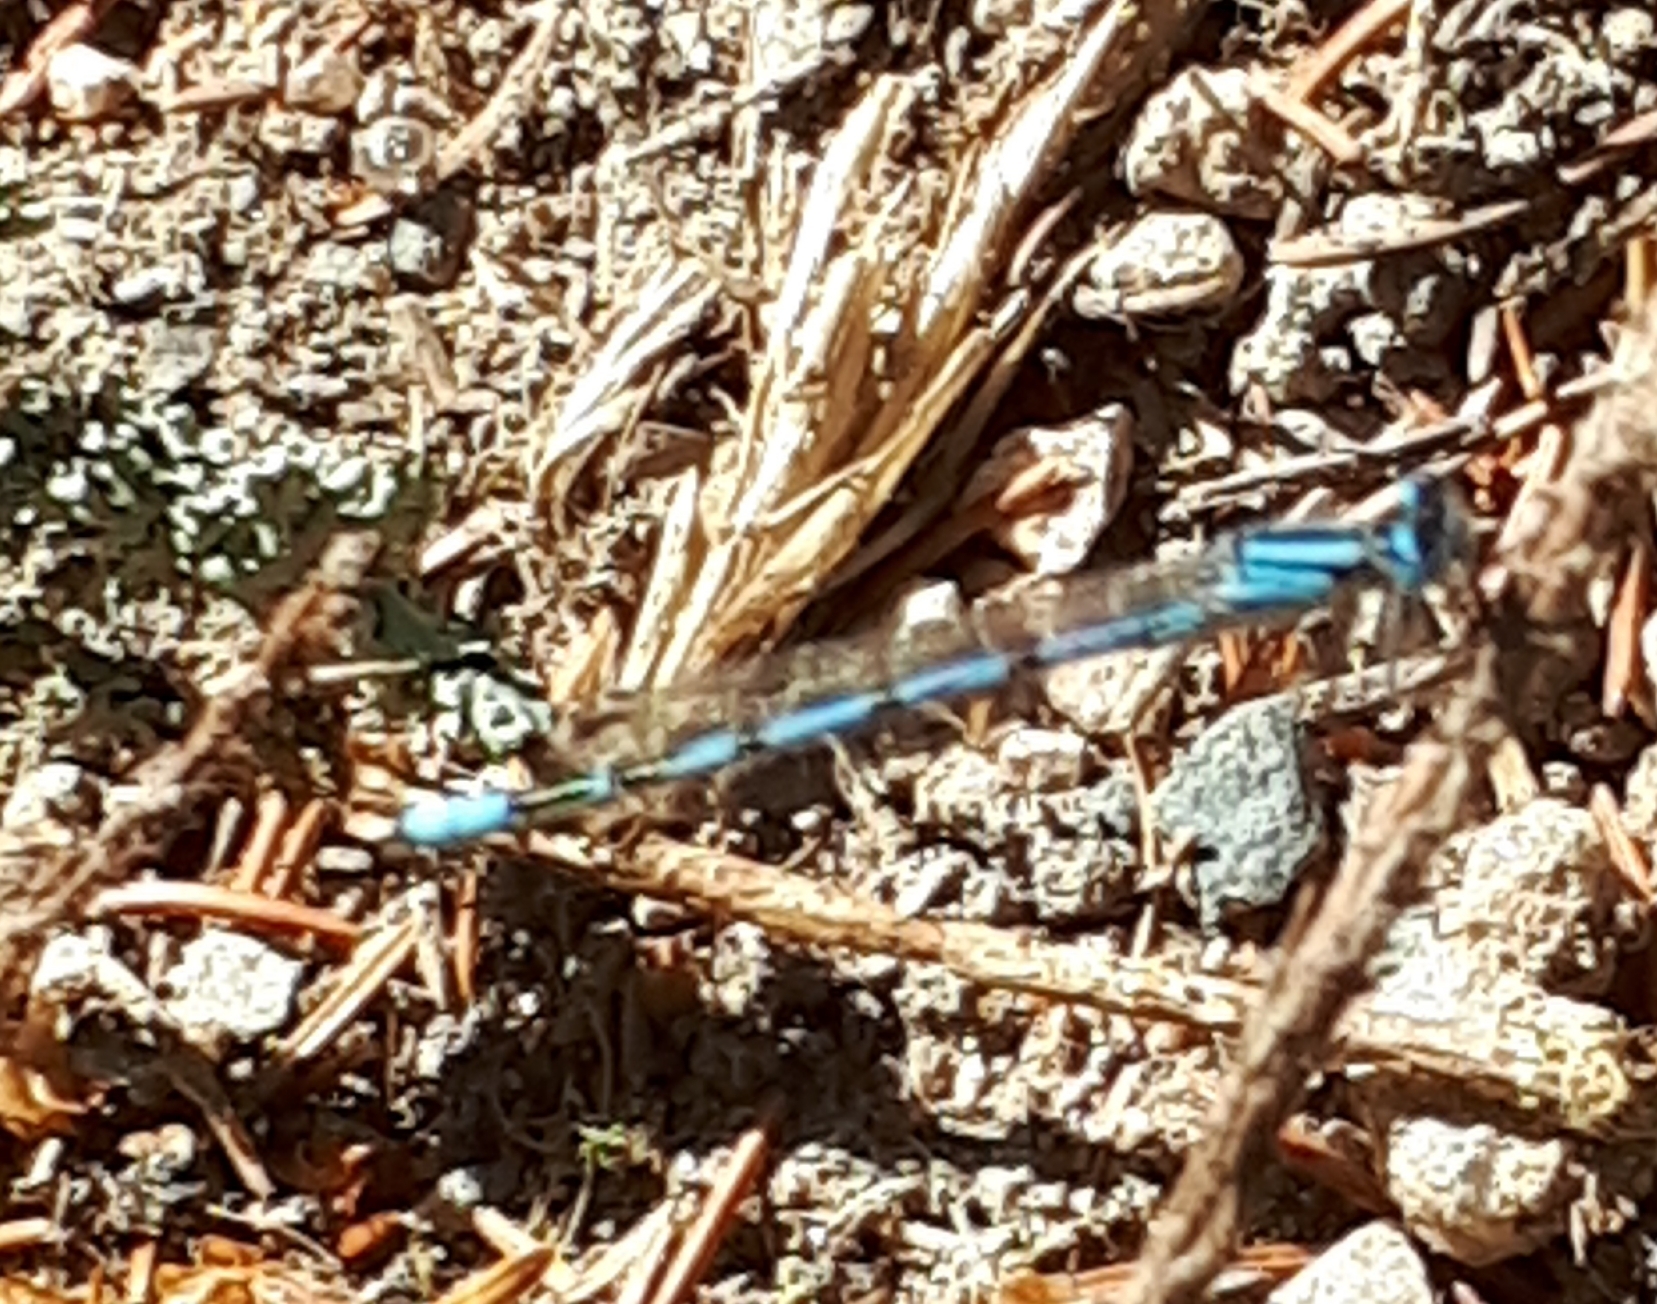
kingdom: Animalia
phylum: Arthropoda
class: Insecta
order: Odonata
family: Coenagrionidae
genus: Enallagma
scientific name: Enallagma cyathigerum
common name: Common blue damselfly
